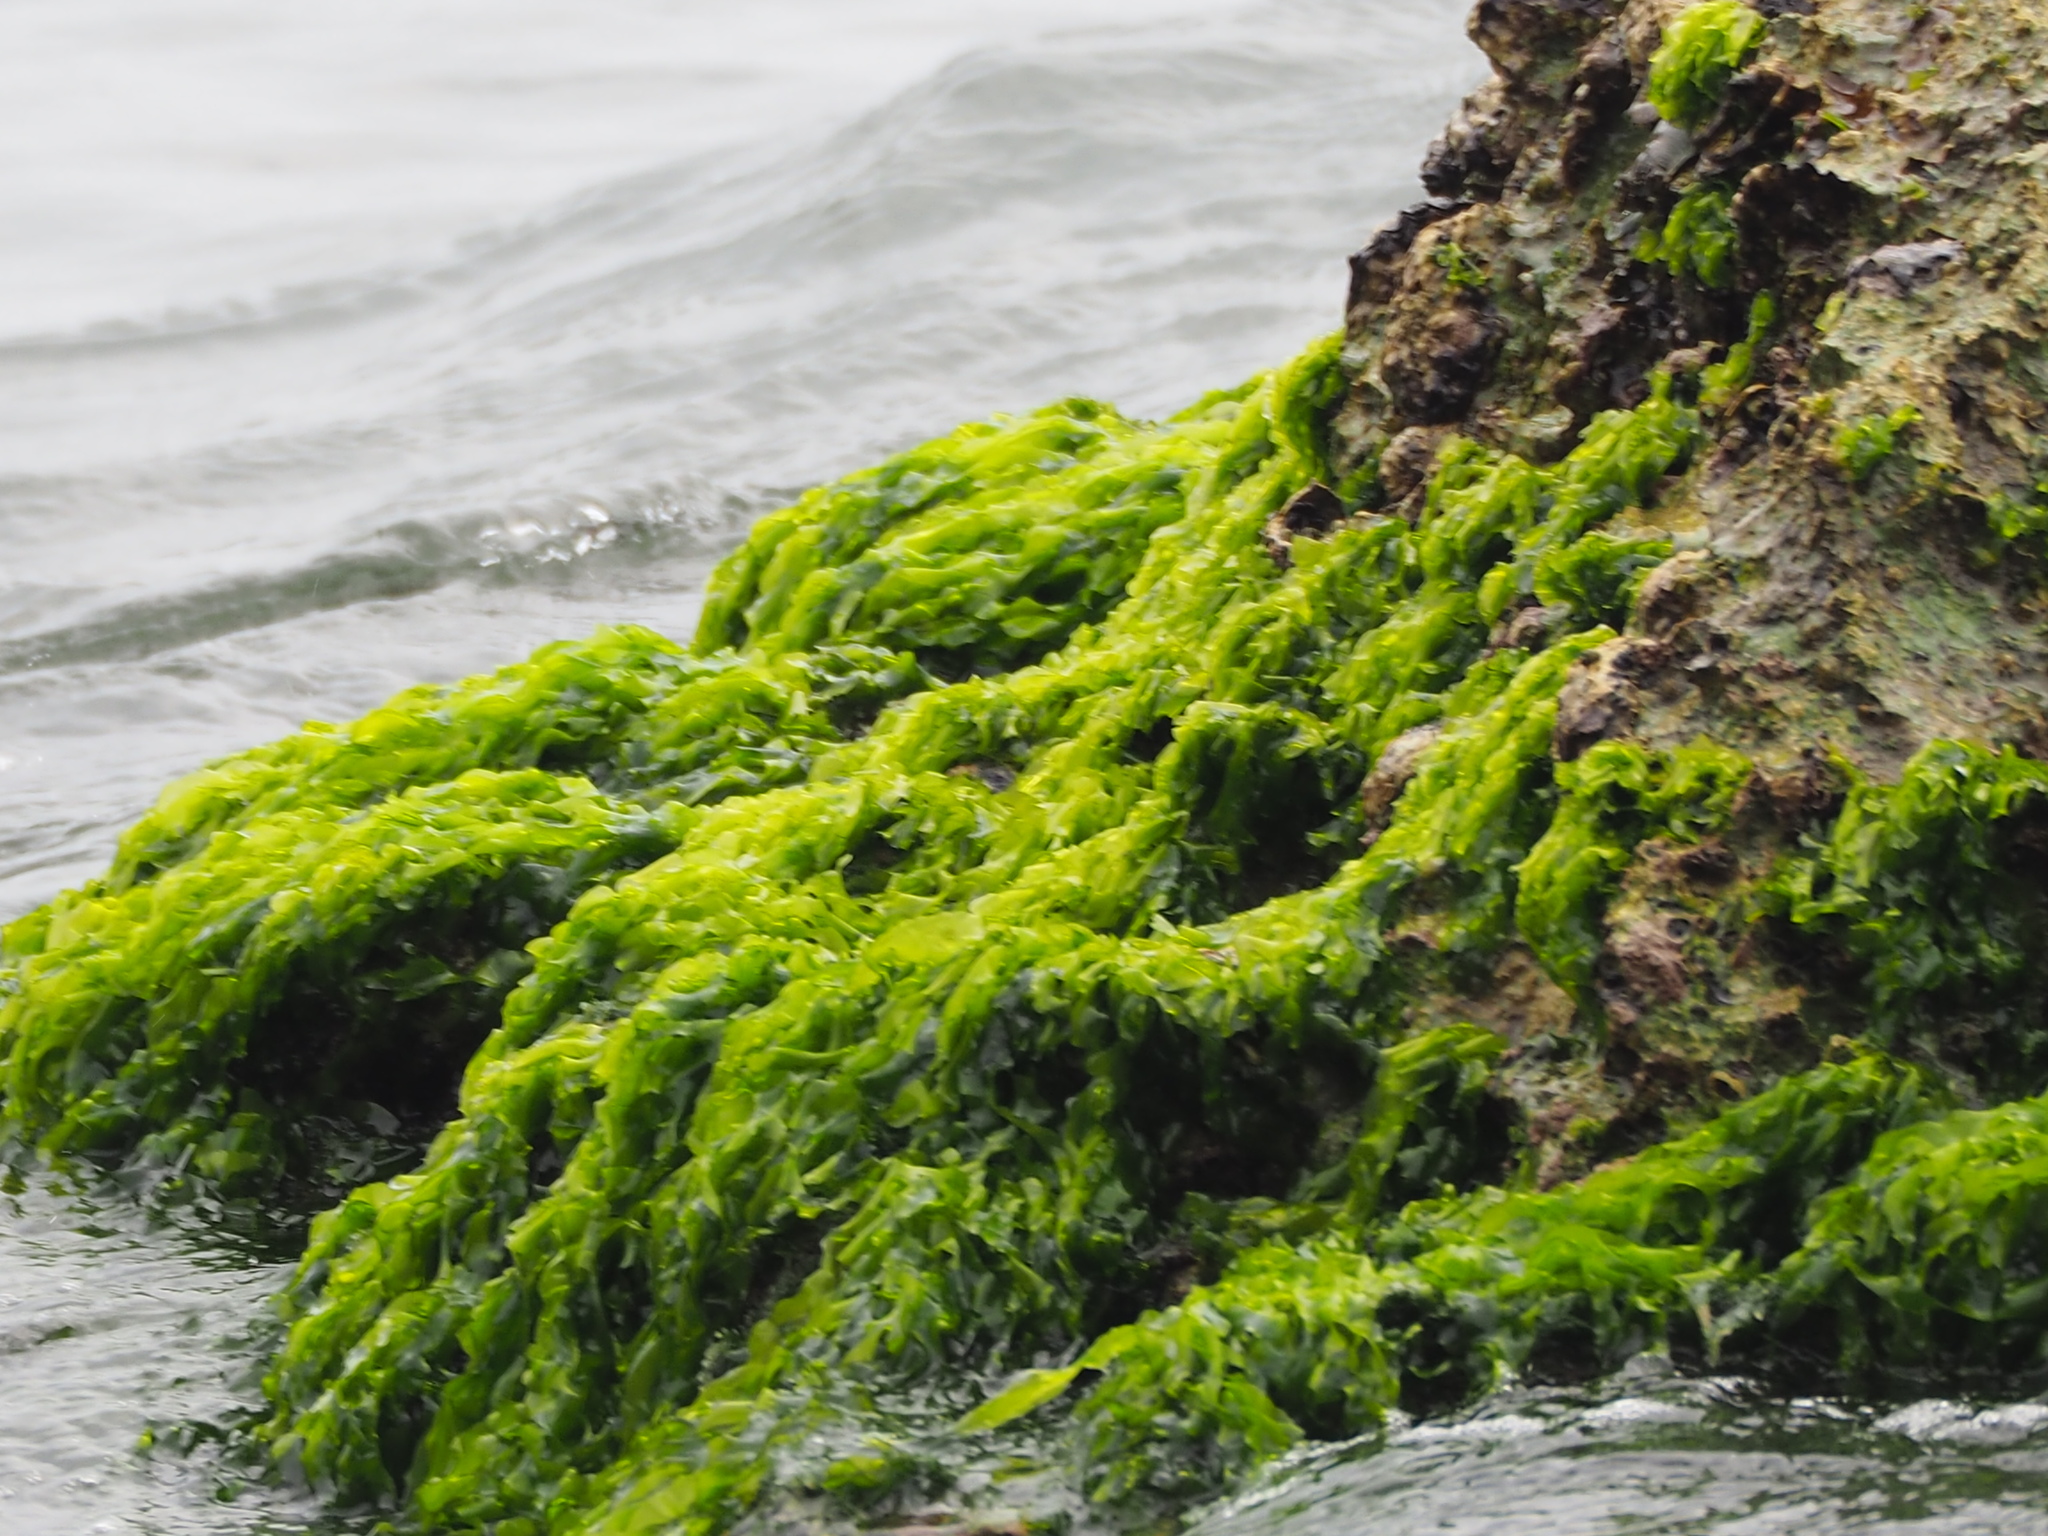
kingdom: Plantae
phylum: Chlorophyta
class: Ulvophyceae
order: Ulvales
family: Ulvaceae
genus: Ulva
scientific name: Ulva lactuca
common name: Sea lettuce
